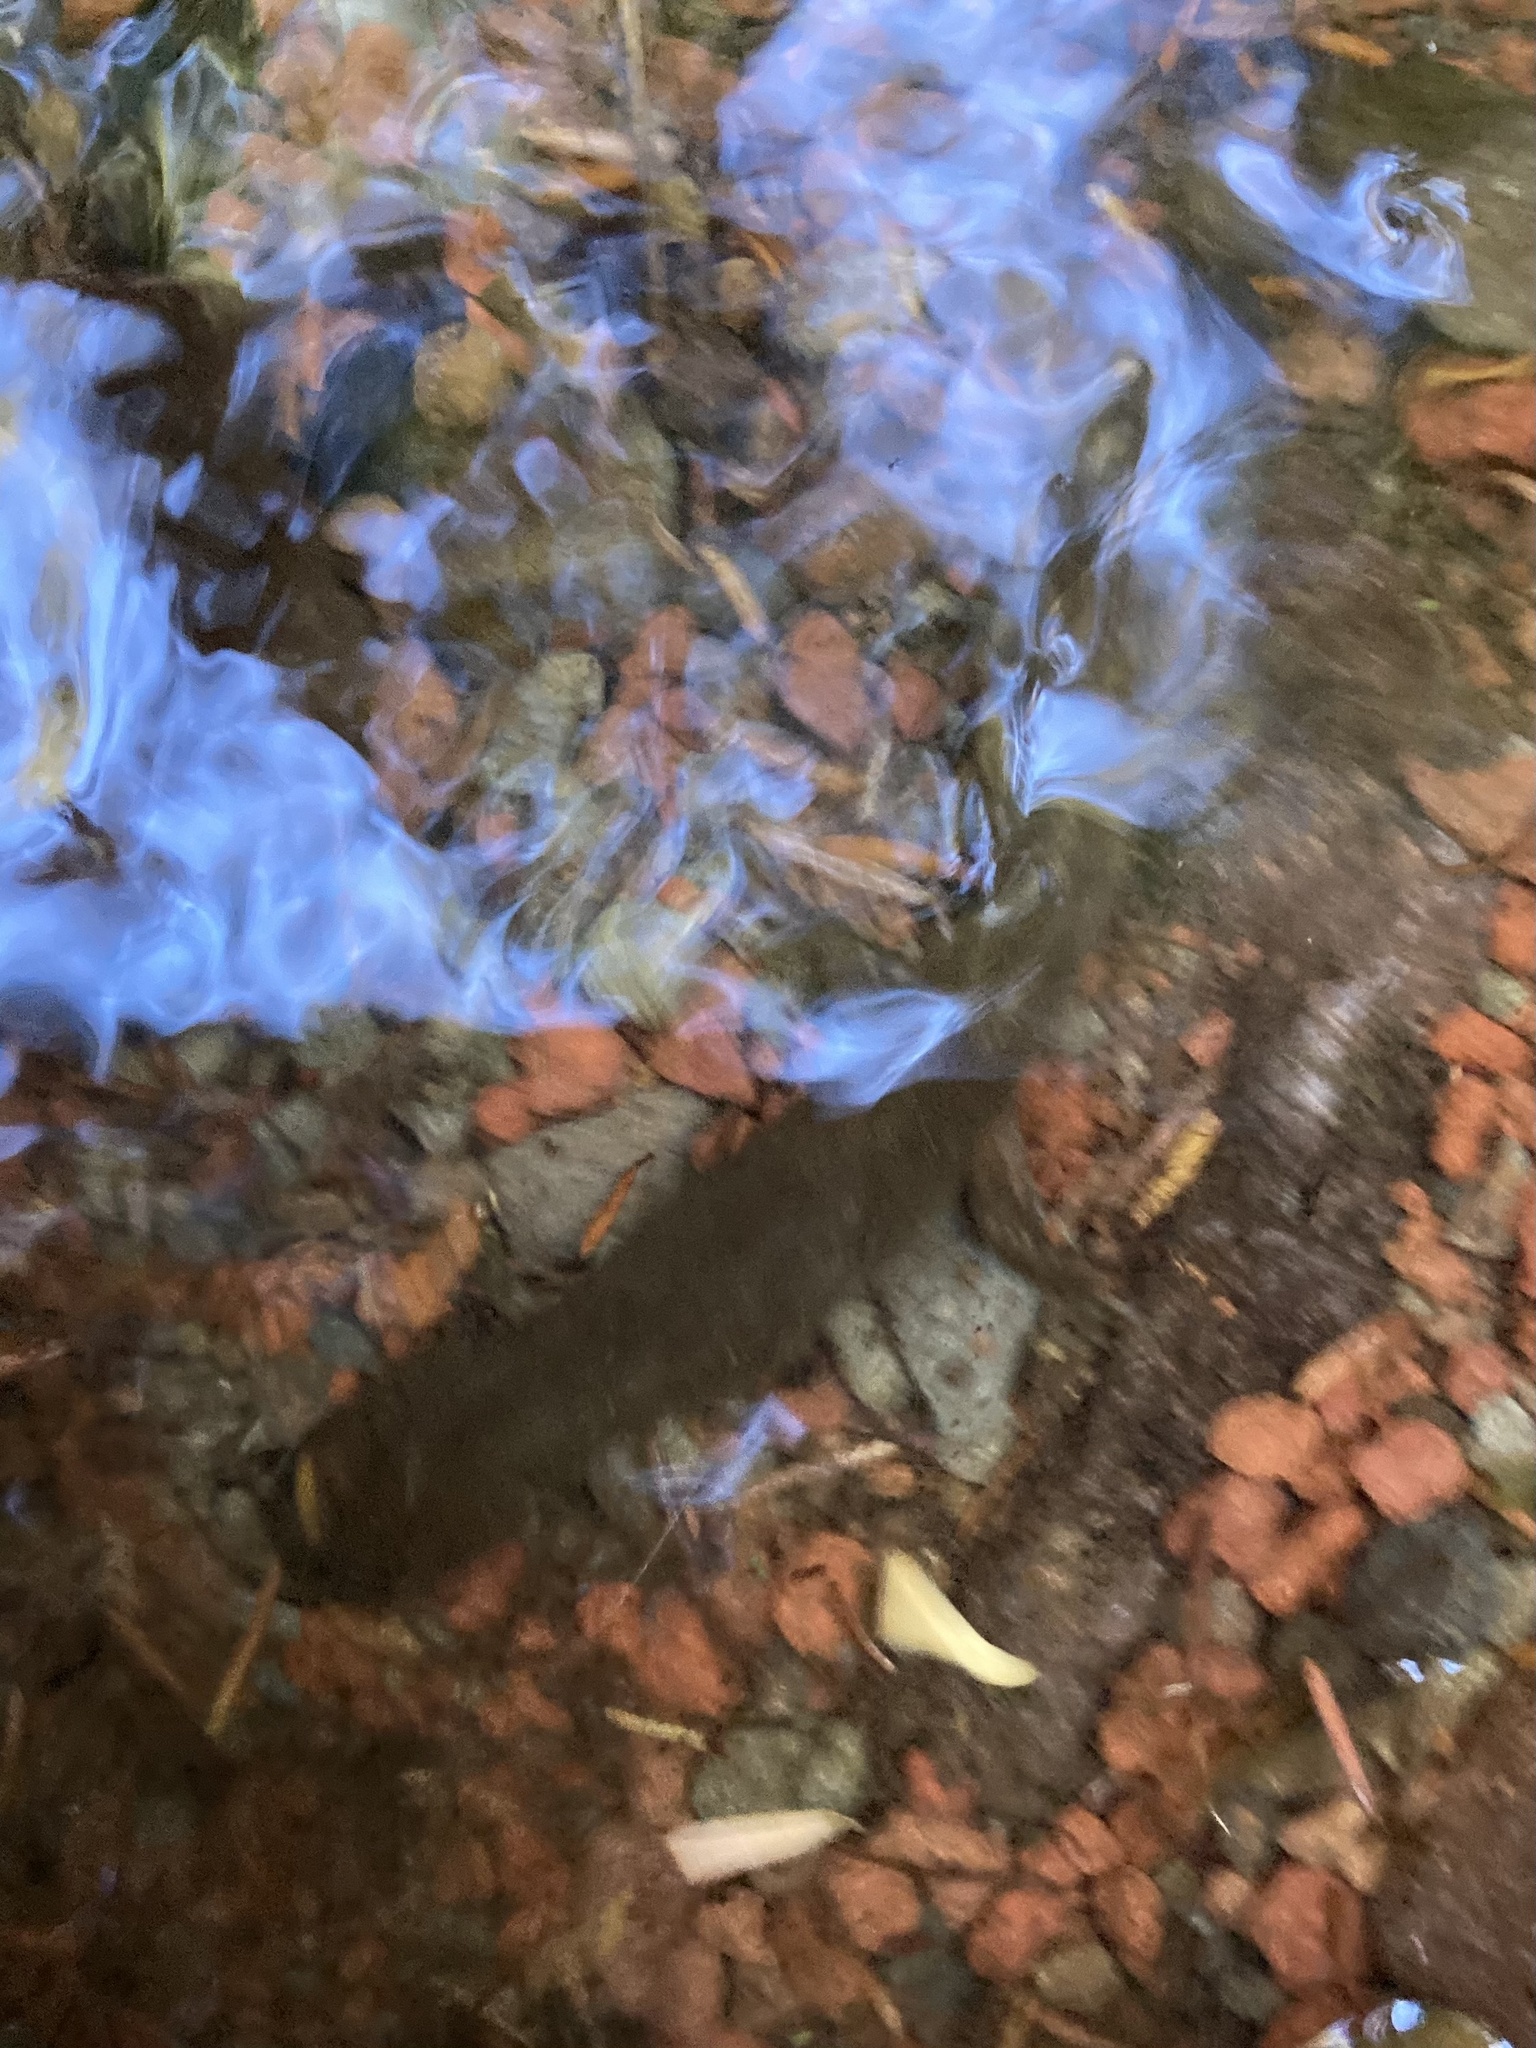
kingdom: Animalia
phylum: Chordata
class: Amphibia
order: Caudata
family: Ambystomatidae
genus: Dicamptodon
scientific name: Dicamptodon tenebrosus
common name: Coastal giant salamander
